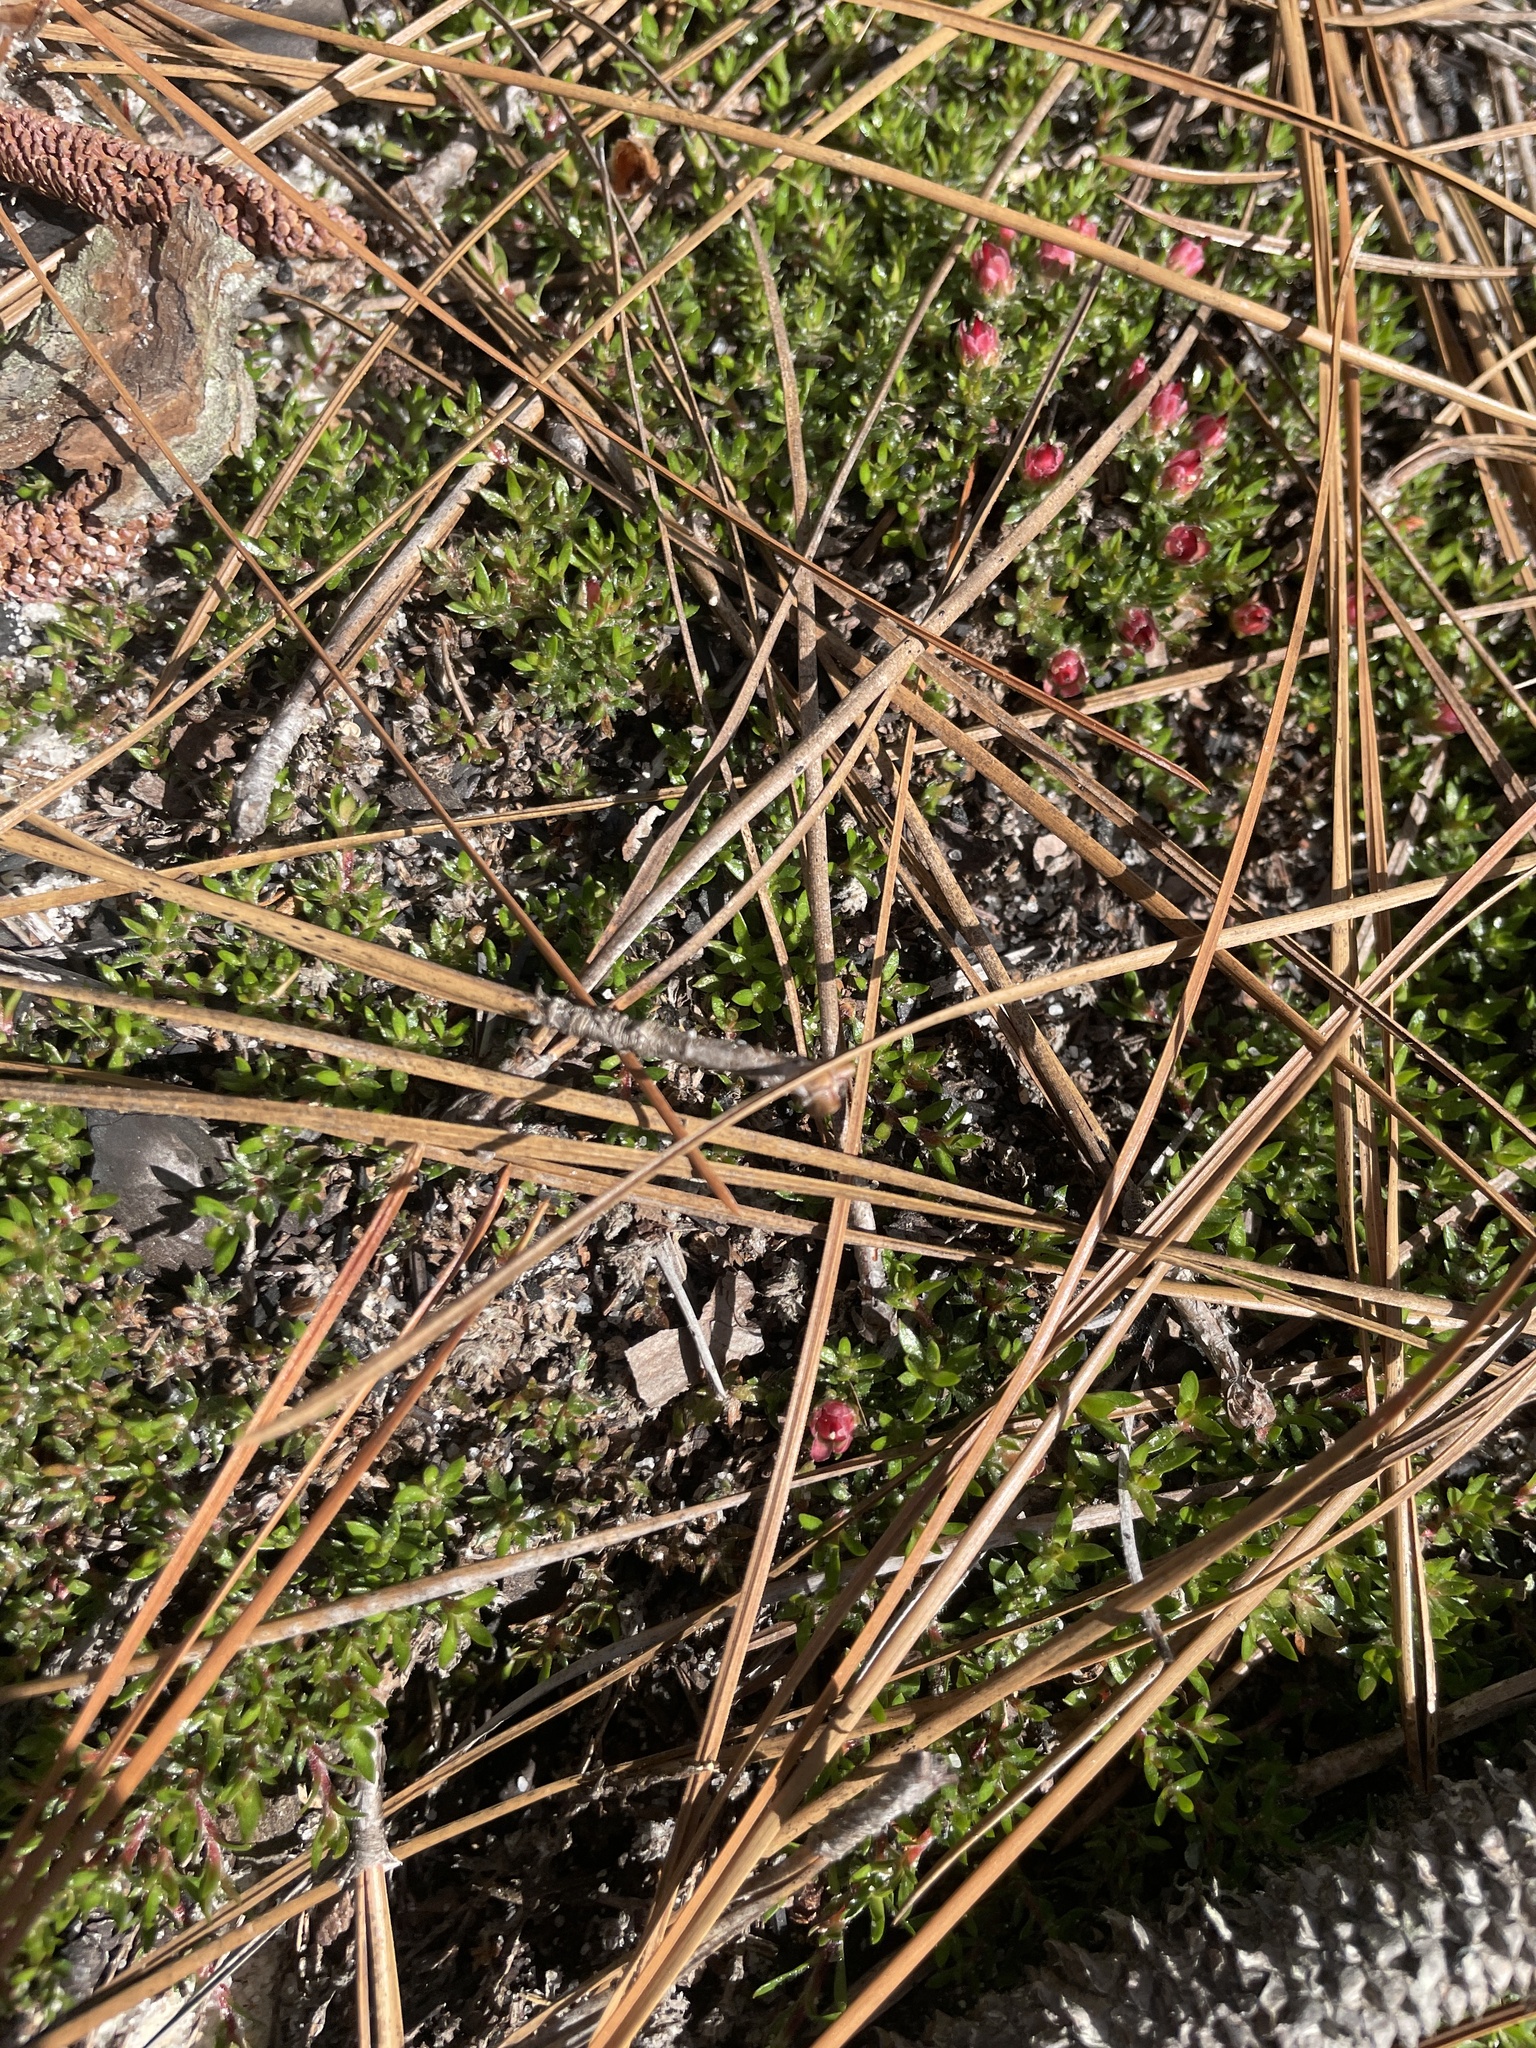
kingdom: Plantae
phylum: Tracheophyta
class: Magnoliopsida
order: Ericales
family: Diapensiaceae
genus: Pyxidanthera
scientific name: Pyxidanthera brevifolia
